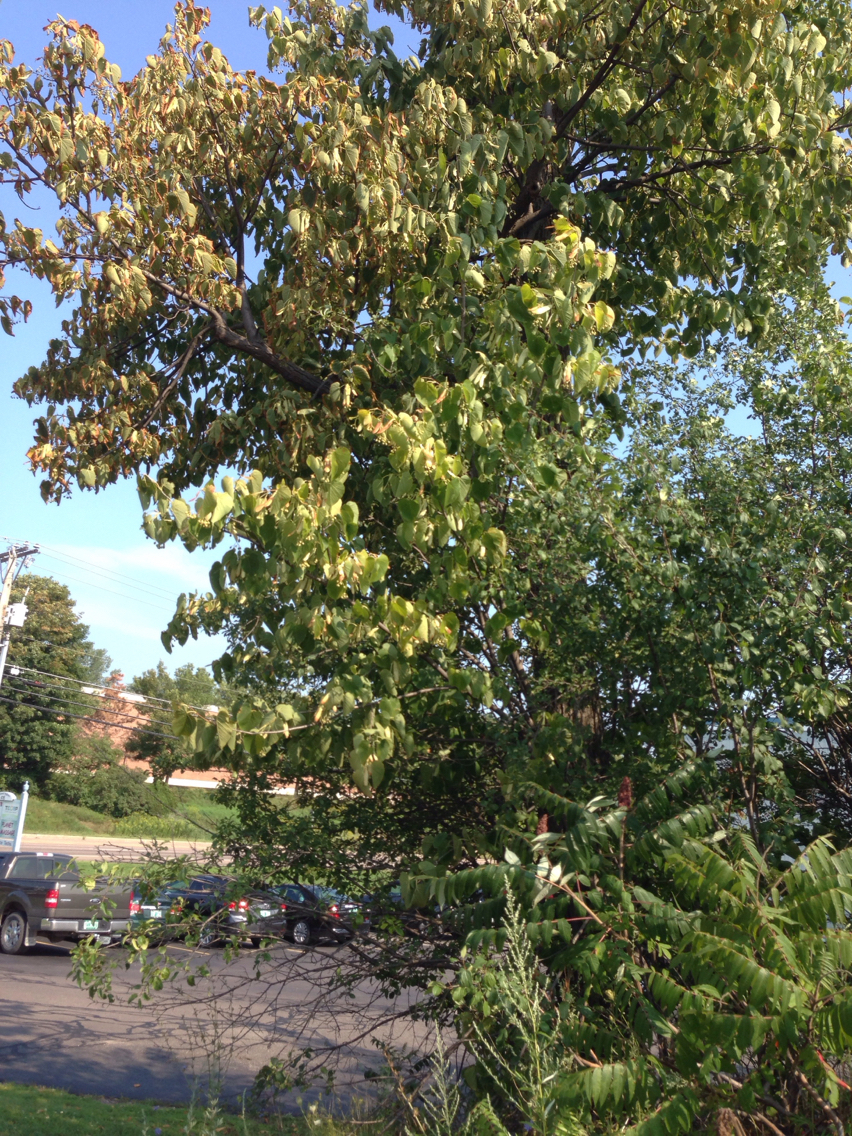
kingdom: Plantae
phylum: Tracheophyta
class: Magnoliopsida
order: Malvales
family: Malvaceae
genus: Tilia
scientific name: Tilia americana
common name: Basswood
